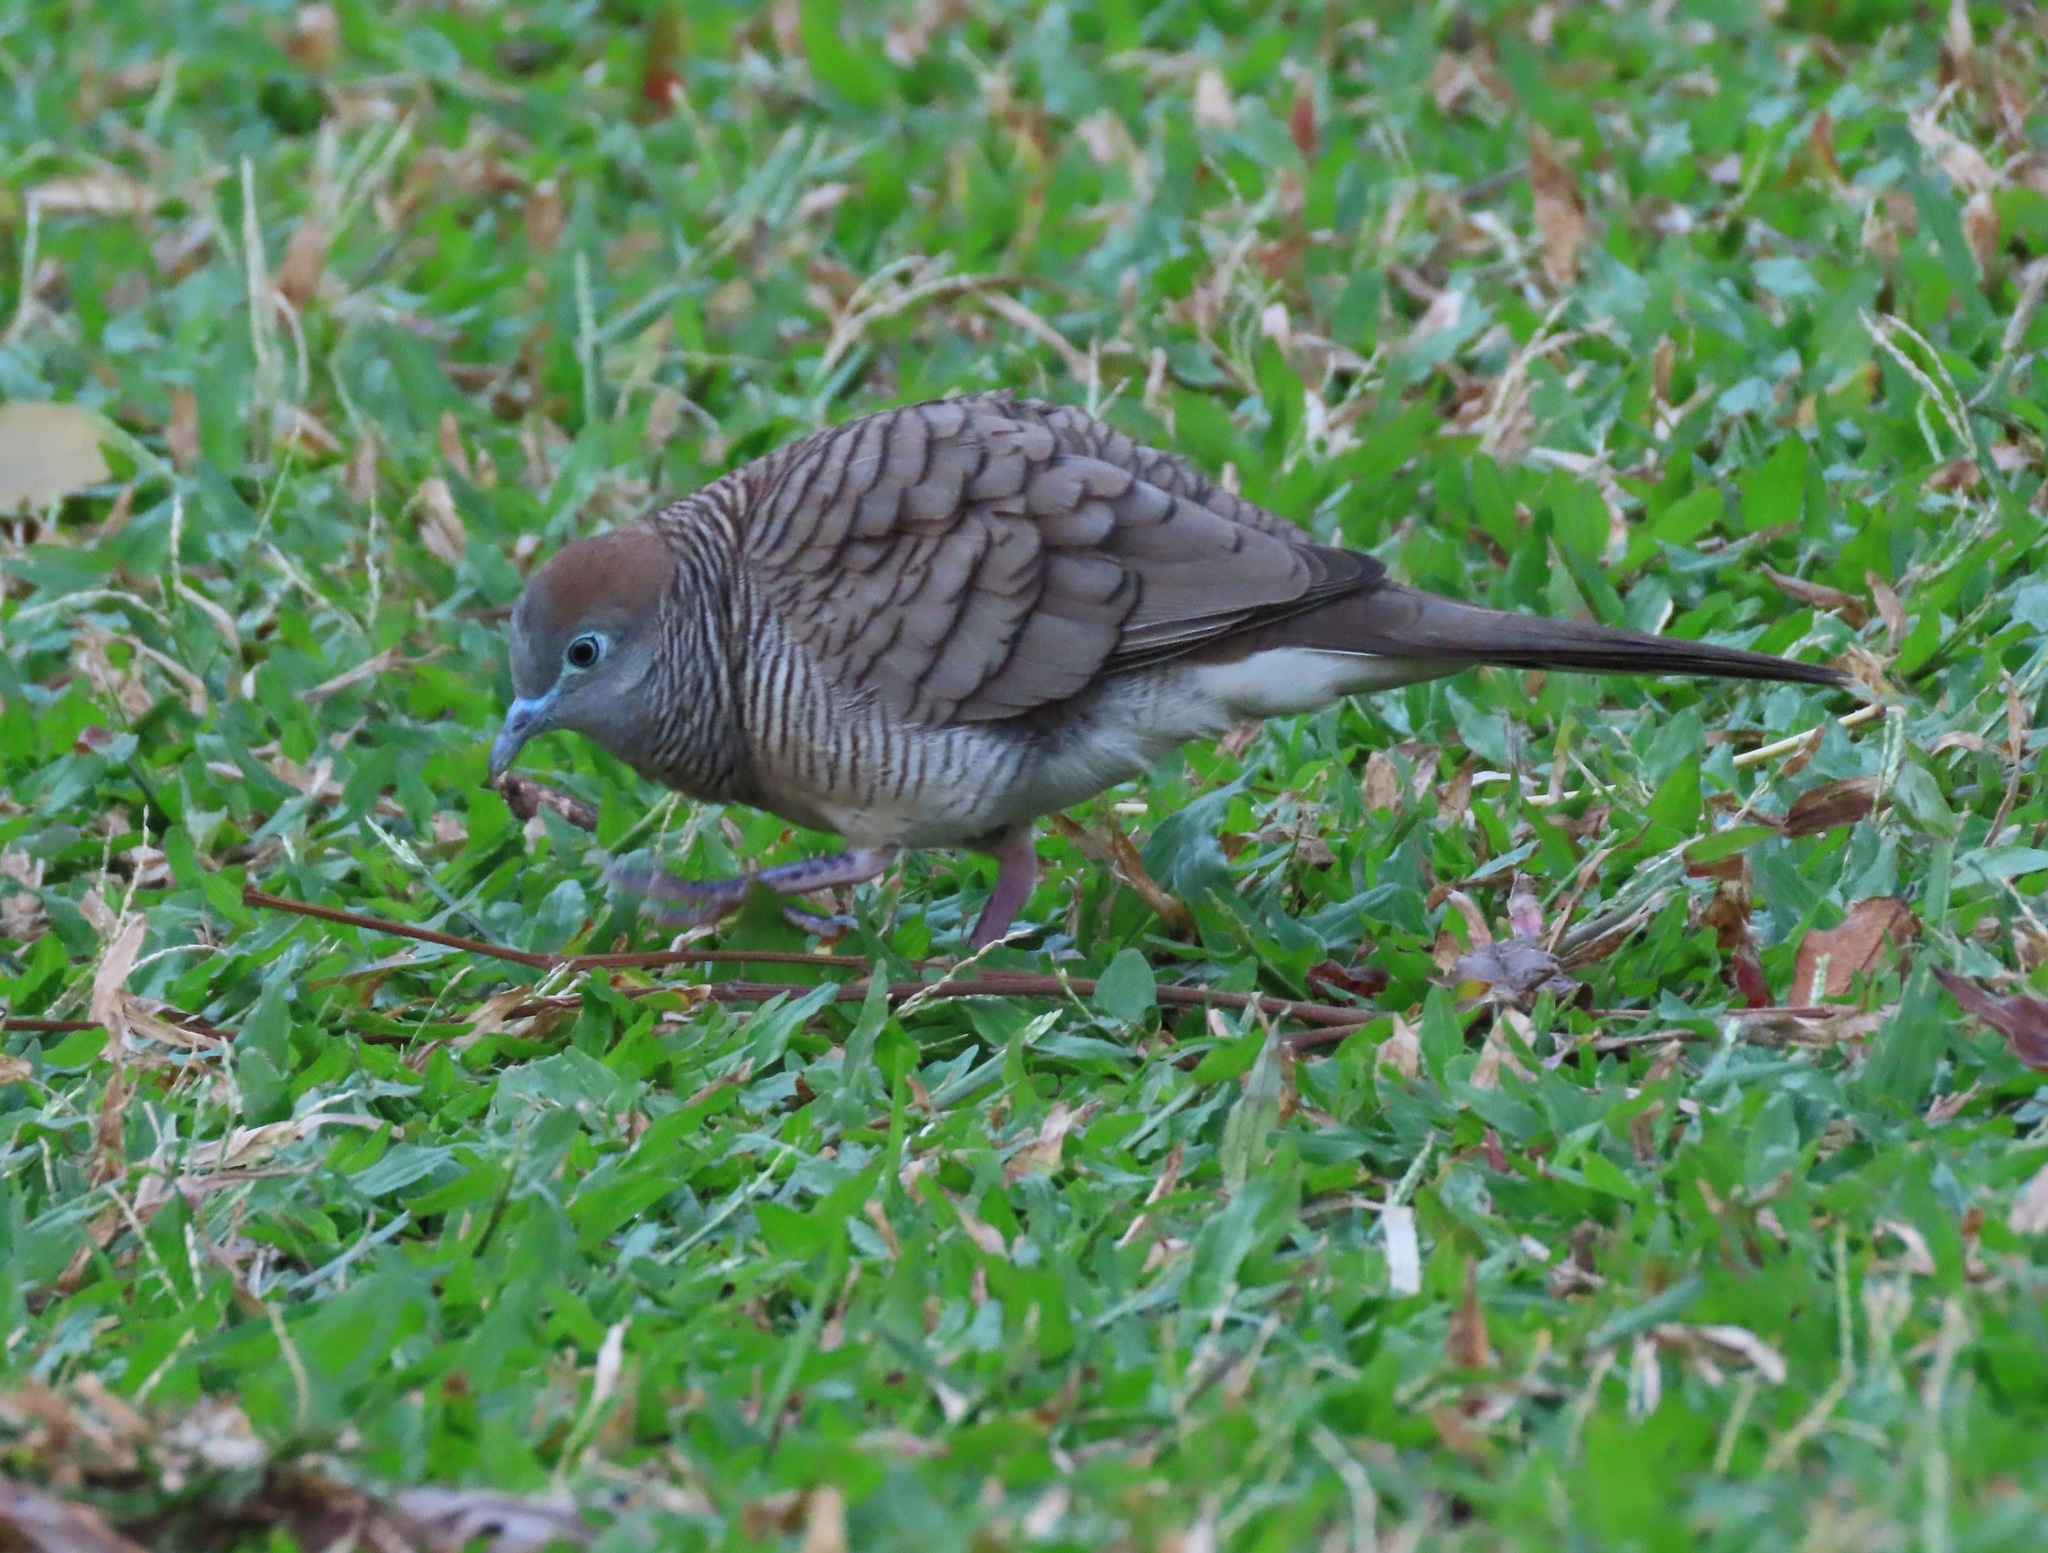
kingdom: Animalia
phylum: Chordata
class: Aves
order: Columbiformes
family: Columbidae
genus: Geopelia
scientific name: Geopelia striata
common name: Zebra dove
